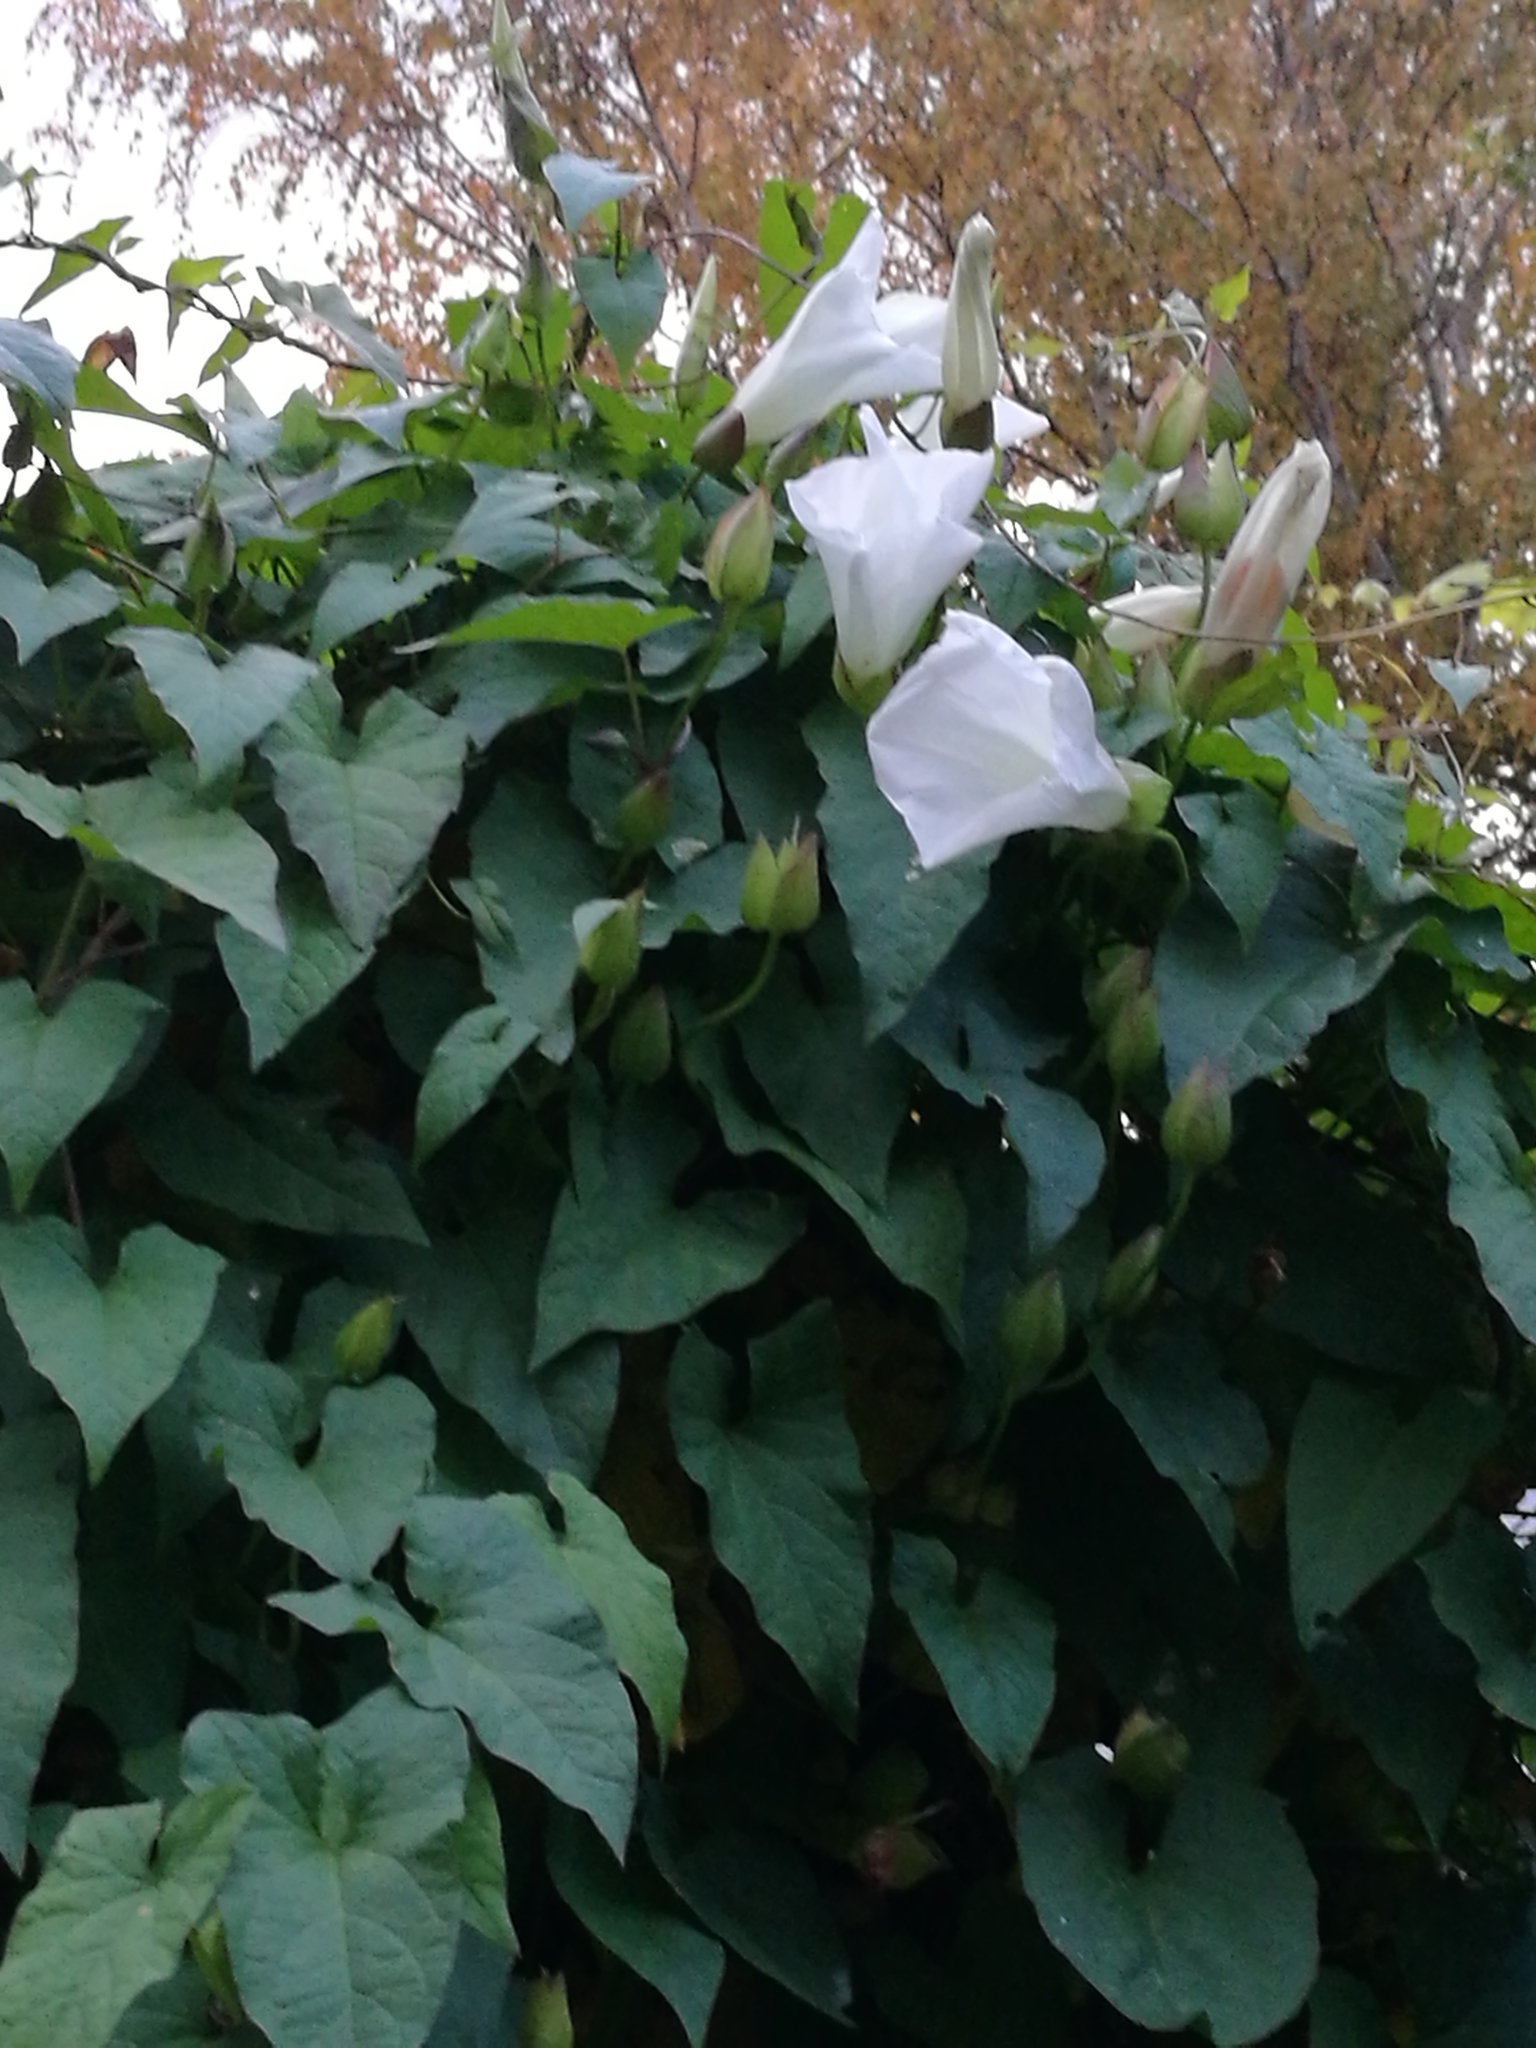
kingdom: Plantae
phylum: Tracheophyta
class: Magnoliopsida
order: Solanales
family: Convolvulaceae
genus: Calystegia
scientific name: Calystegia silvatica
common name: Large bindweed
